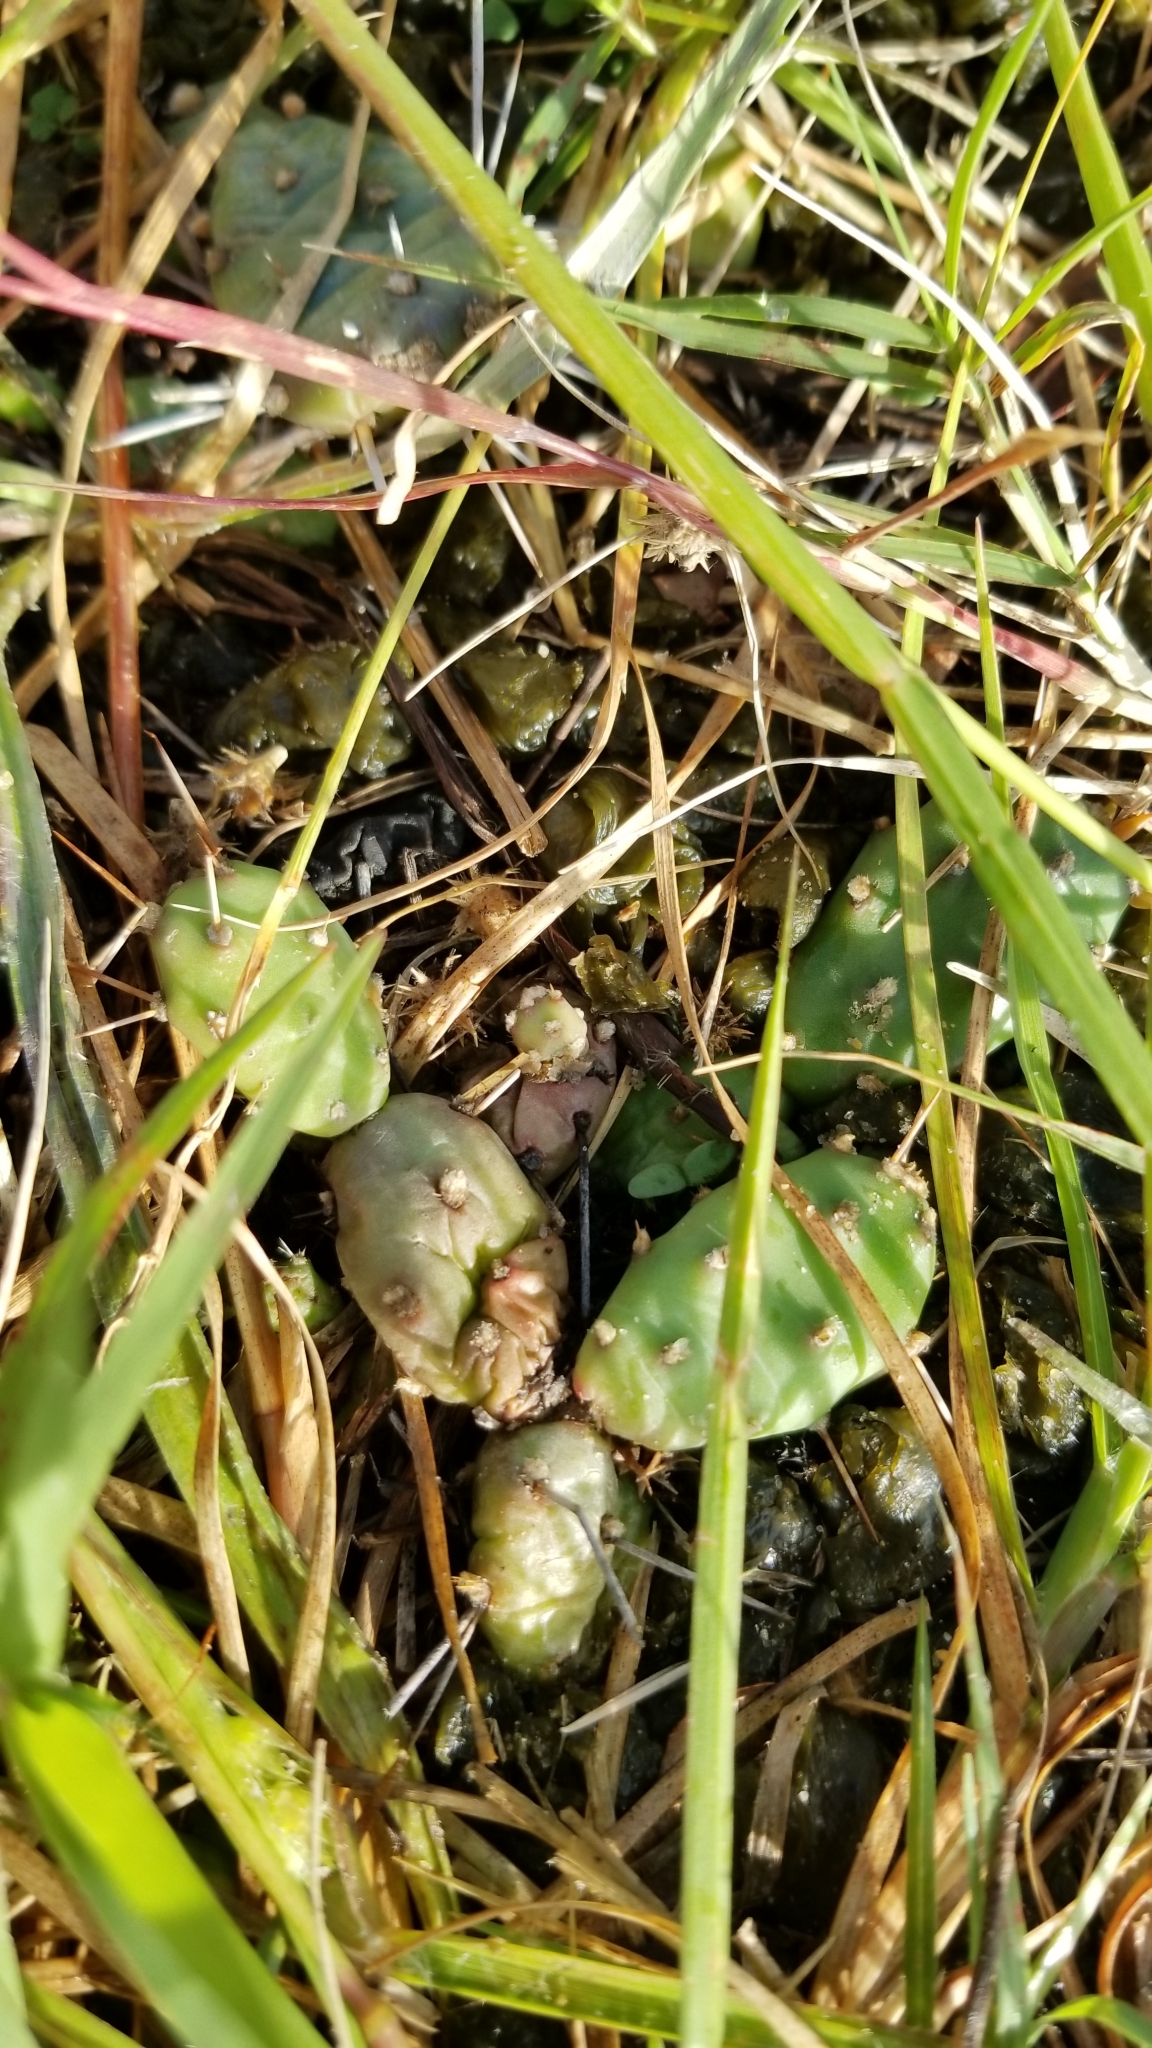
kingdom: Plantae
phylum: Tracheophyta
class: Magnoliopsida
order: Caryophyllales
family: Cactaceae
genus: Opuntia
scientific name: Opuntia drummondii
